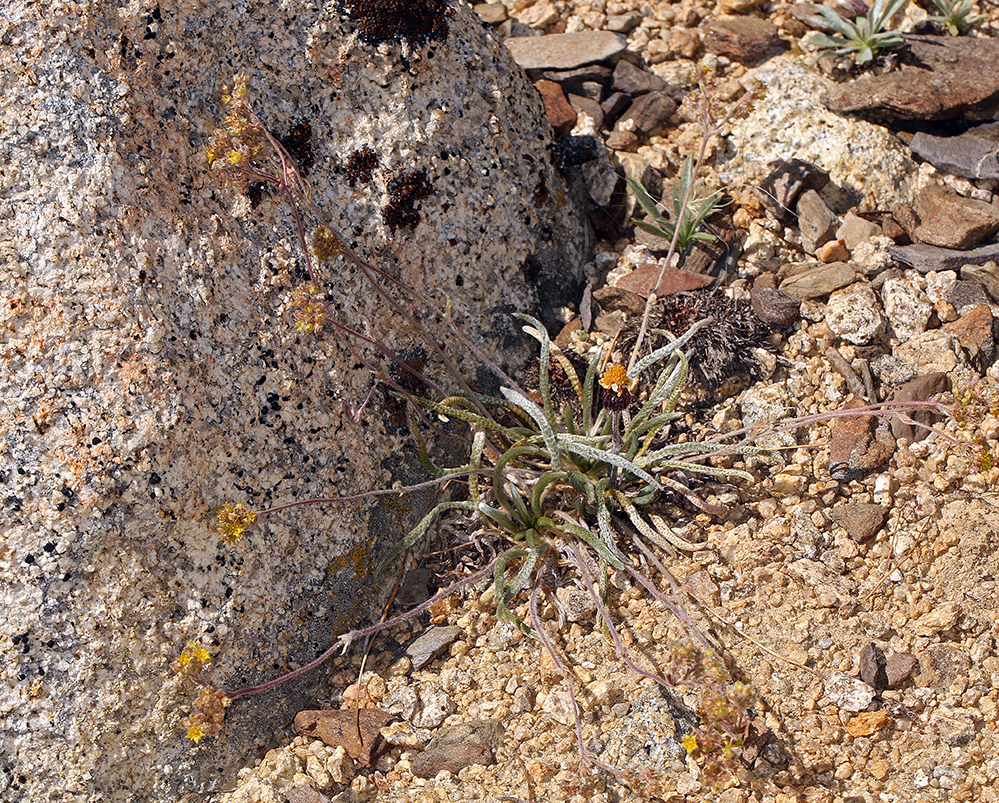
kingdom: Plantae
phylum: Tracheophyta
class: Magnoliopsida
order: Rosales
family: Rosaceae
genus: Potentilla
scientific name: Potentilla muirii
